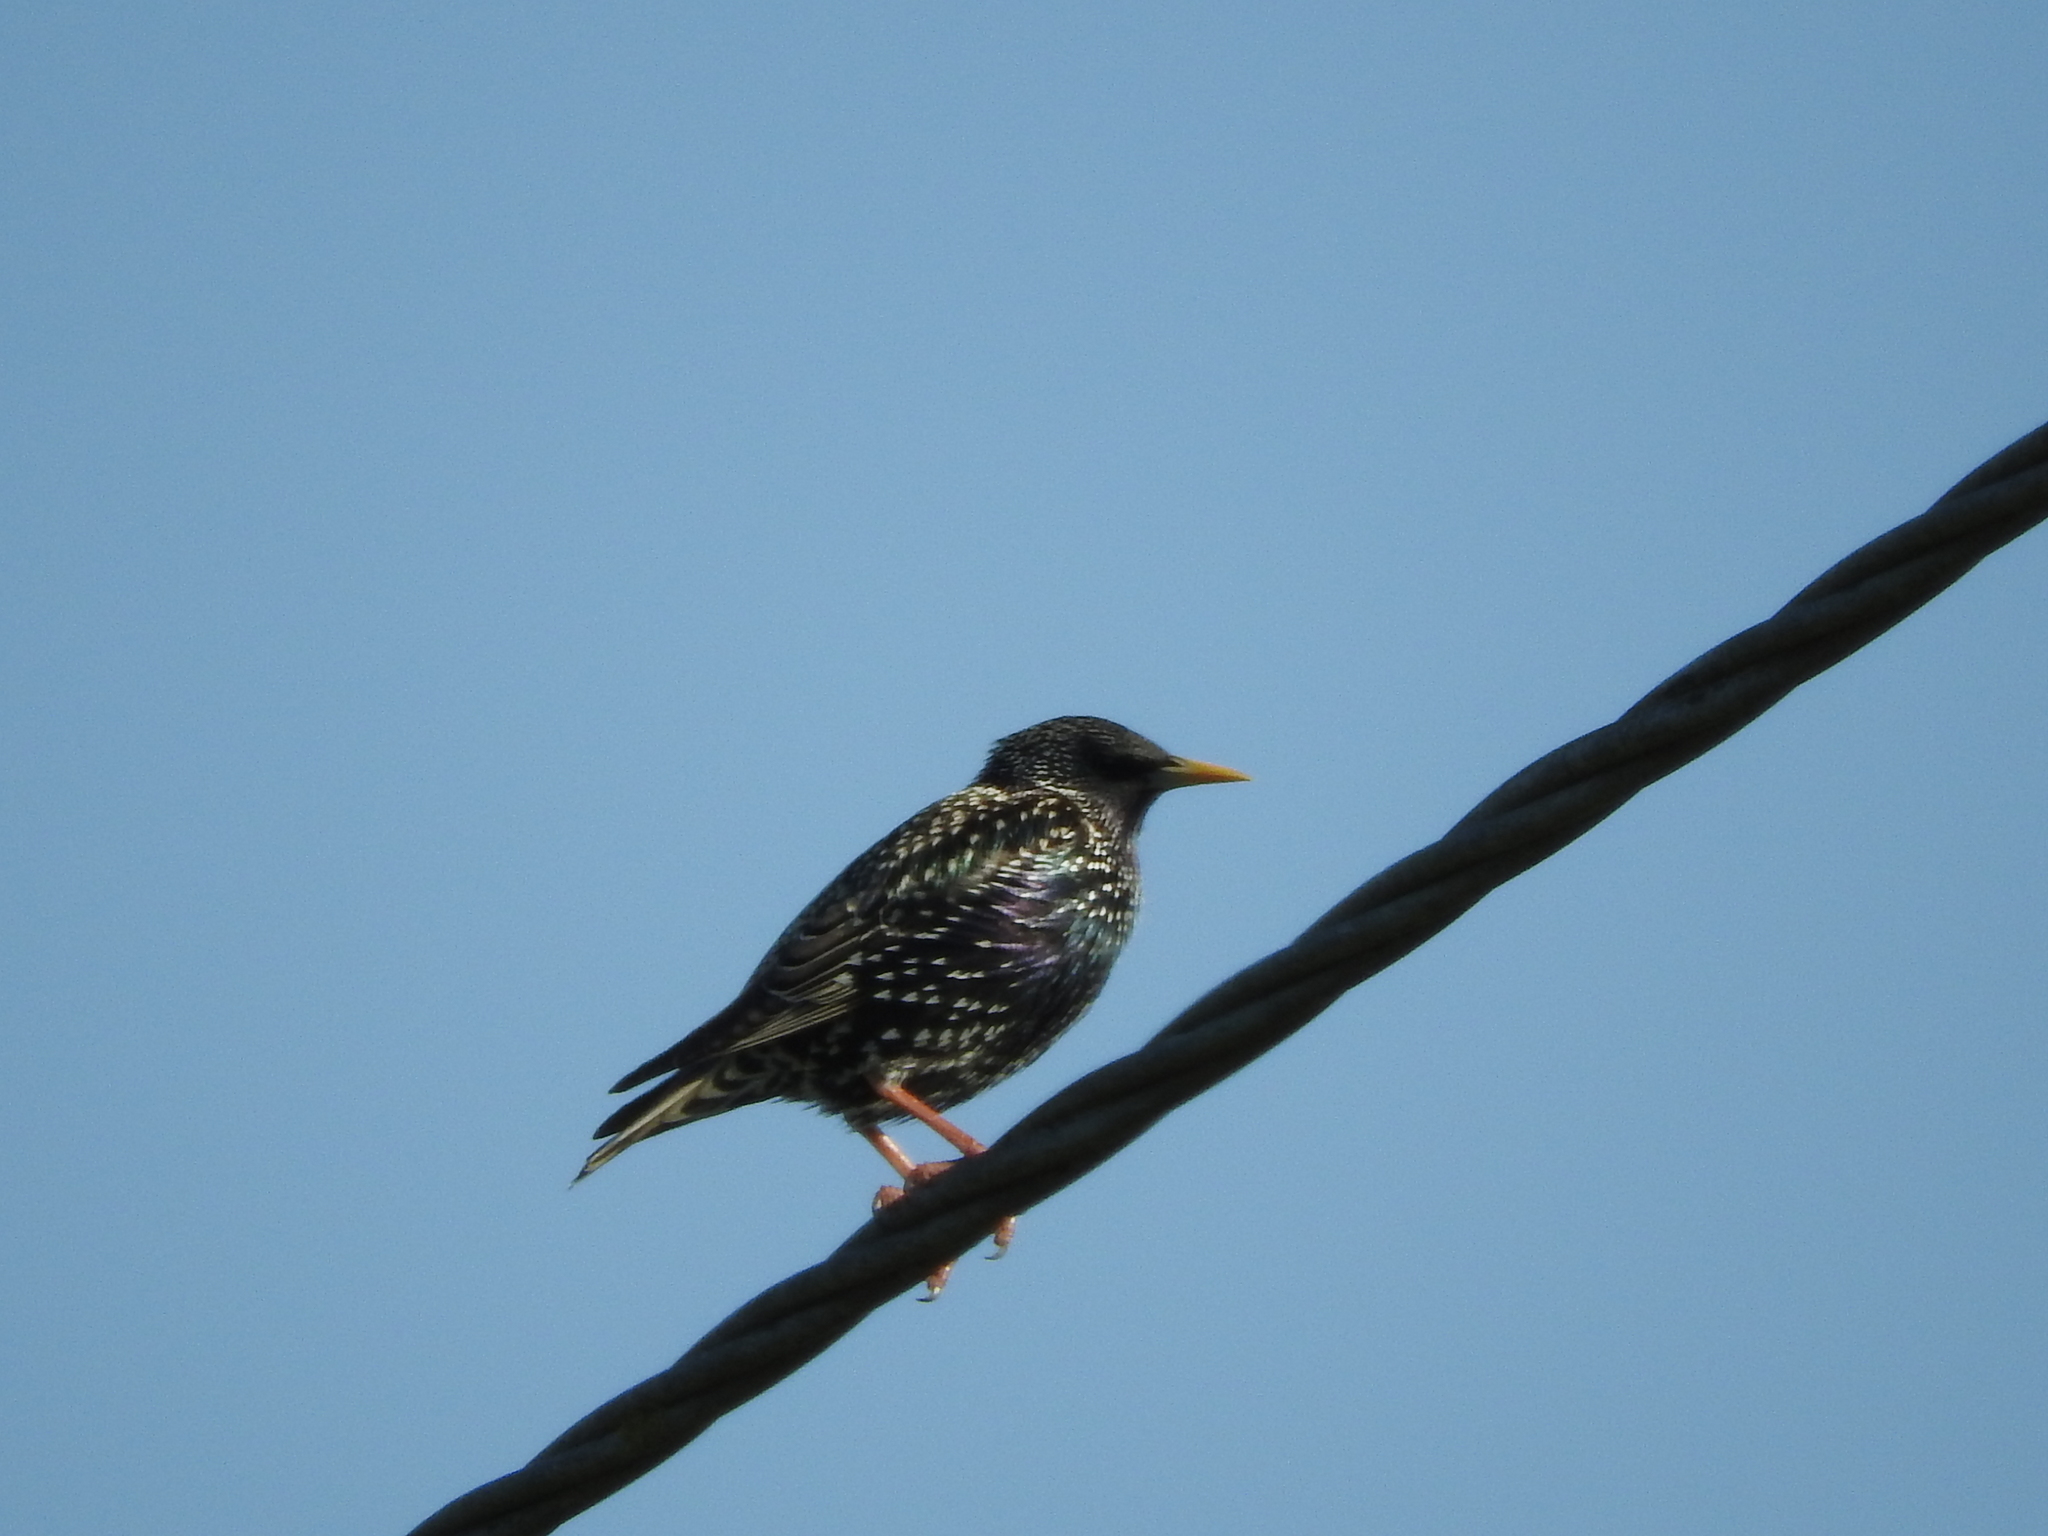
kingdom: Animalia
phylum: Chordata
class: Aves
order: Passeriformes
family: Sturnidae
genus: Sturnus
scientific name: Sturnus vulgaris
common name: Common starling
